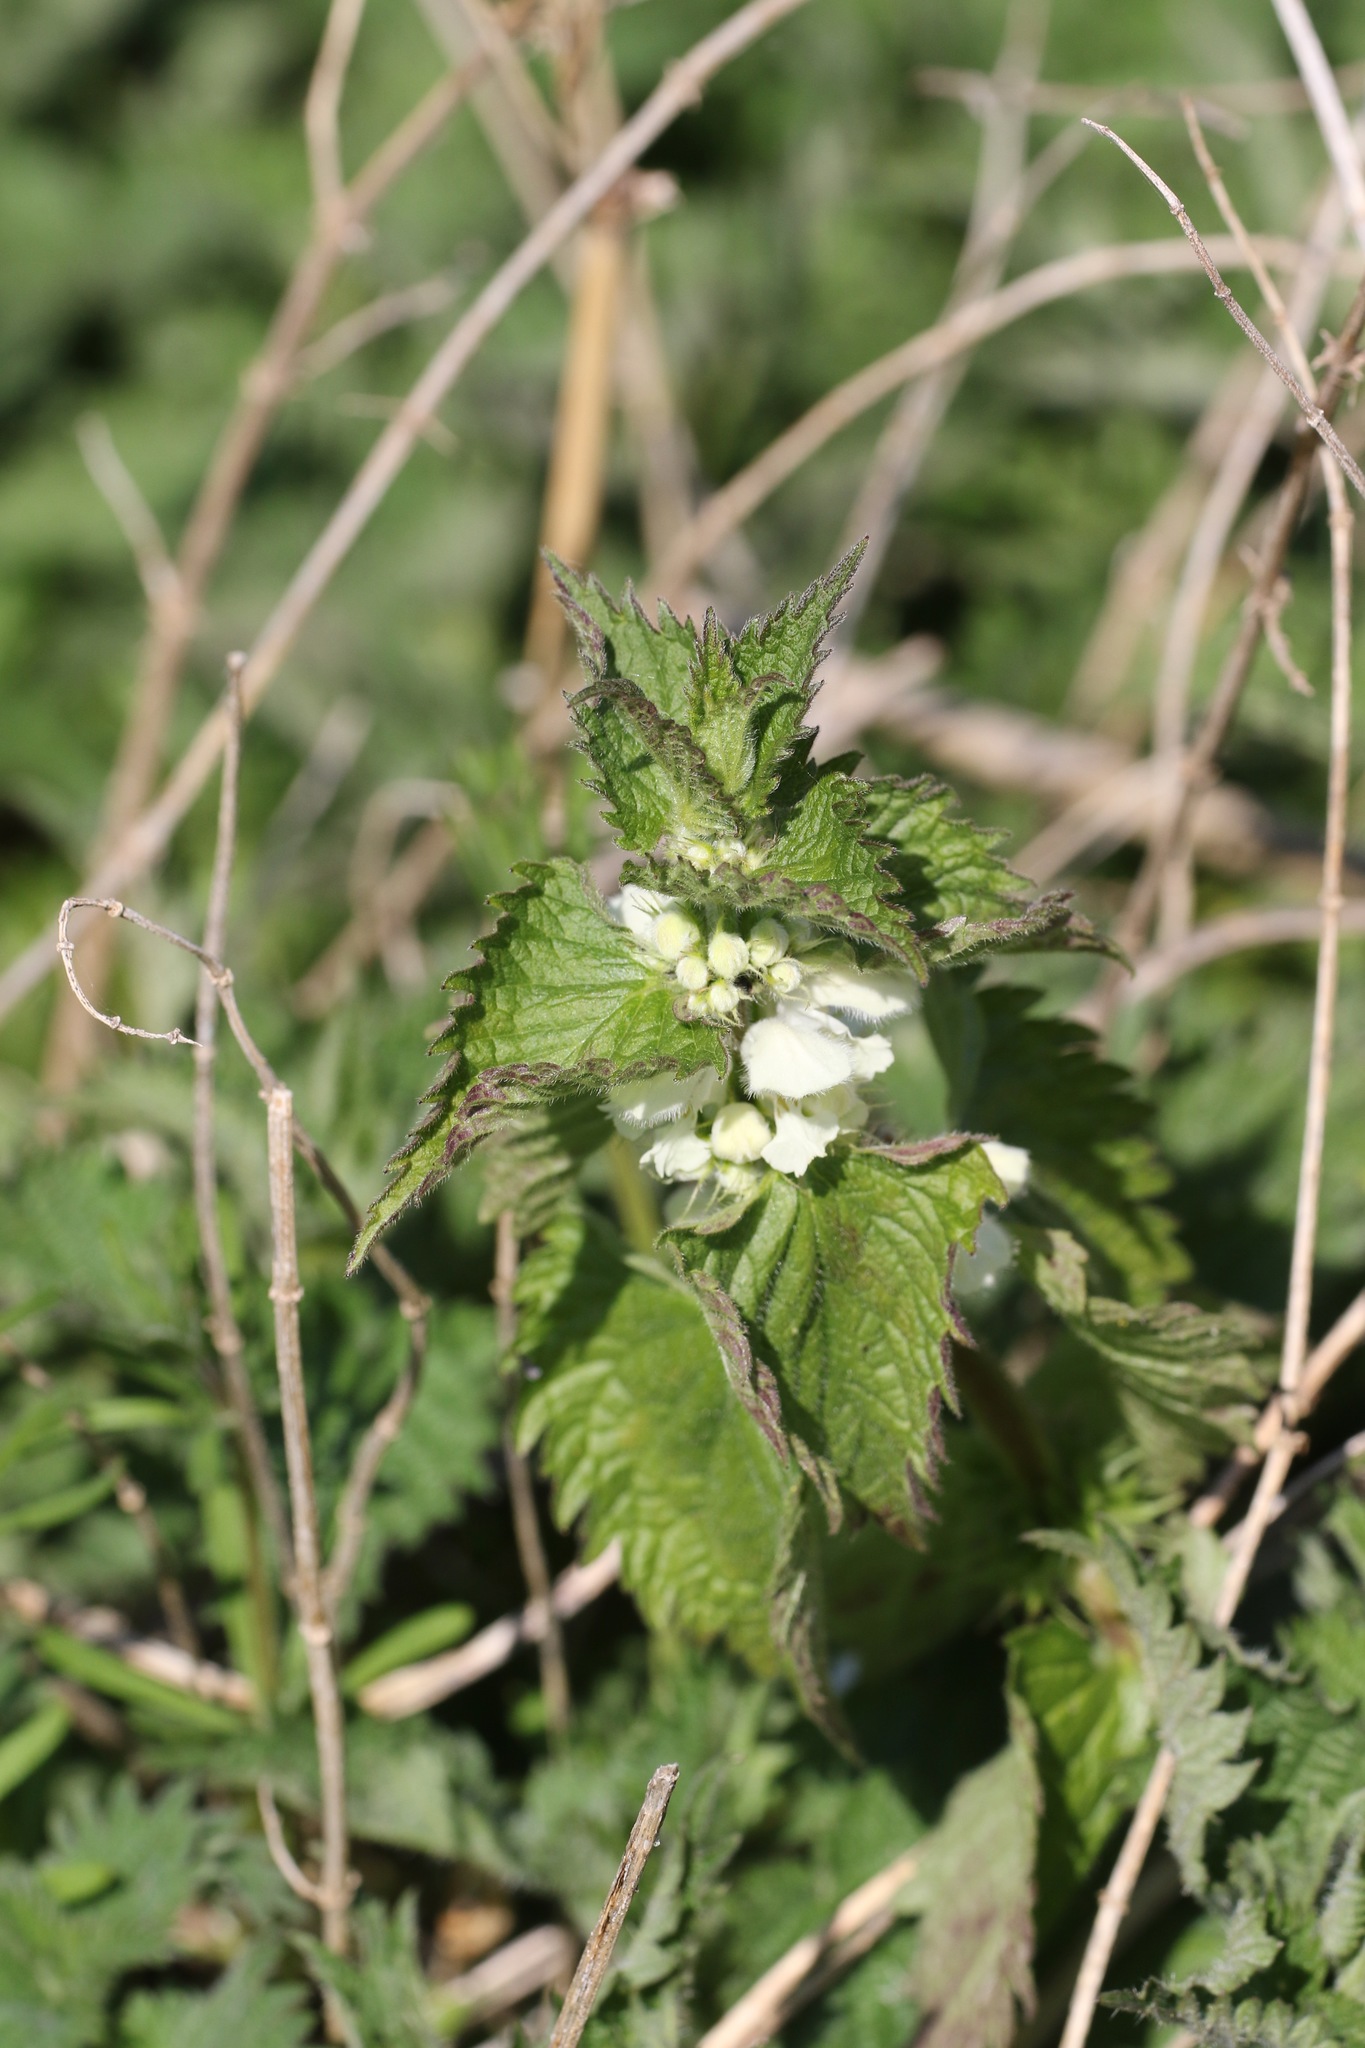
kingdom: Plantae
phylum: Tracheophyta
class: Magnoliopsida
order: Lamiales
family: Lamiaceae
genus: Lamium
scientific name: Lamium album
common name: White dead-nettle
